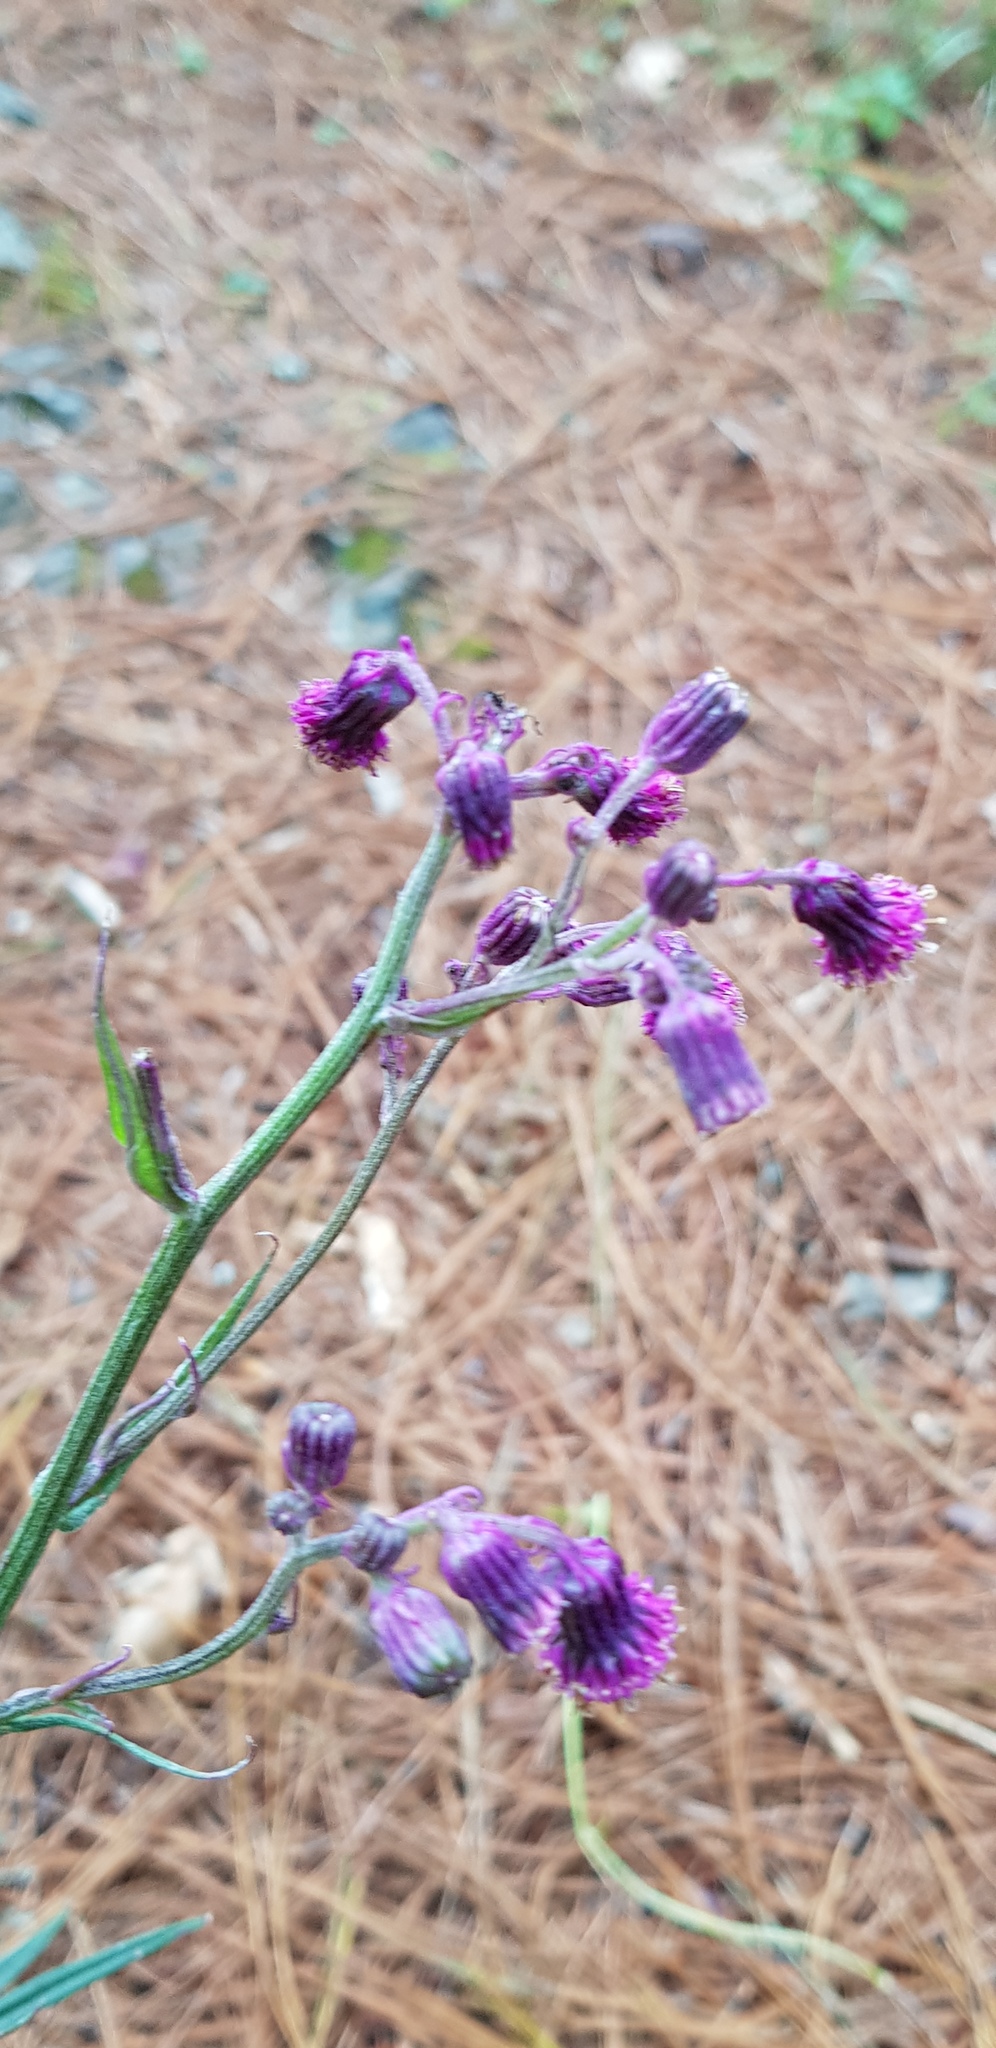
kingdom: Plantae
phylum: Tracheophyta
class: Magnoliopsida
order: Asterales
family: Asteraceae
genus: Senecio
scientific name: Senecio conzattii
